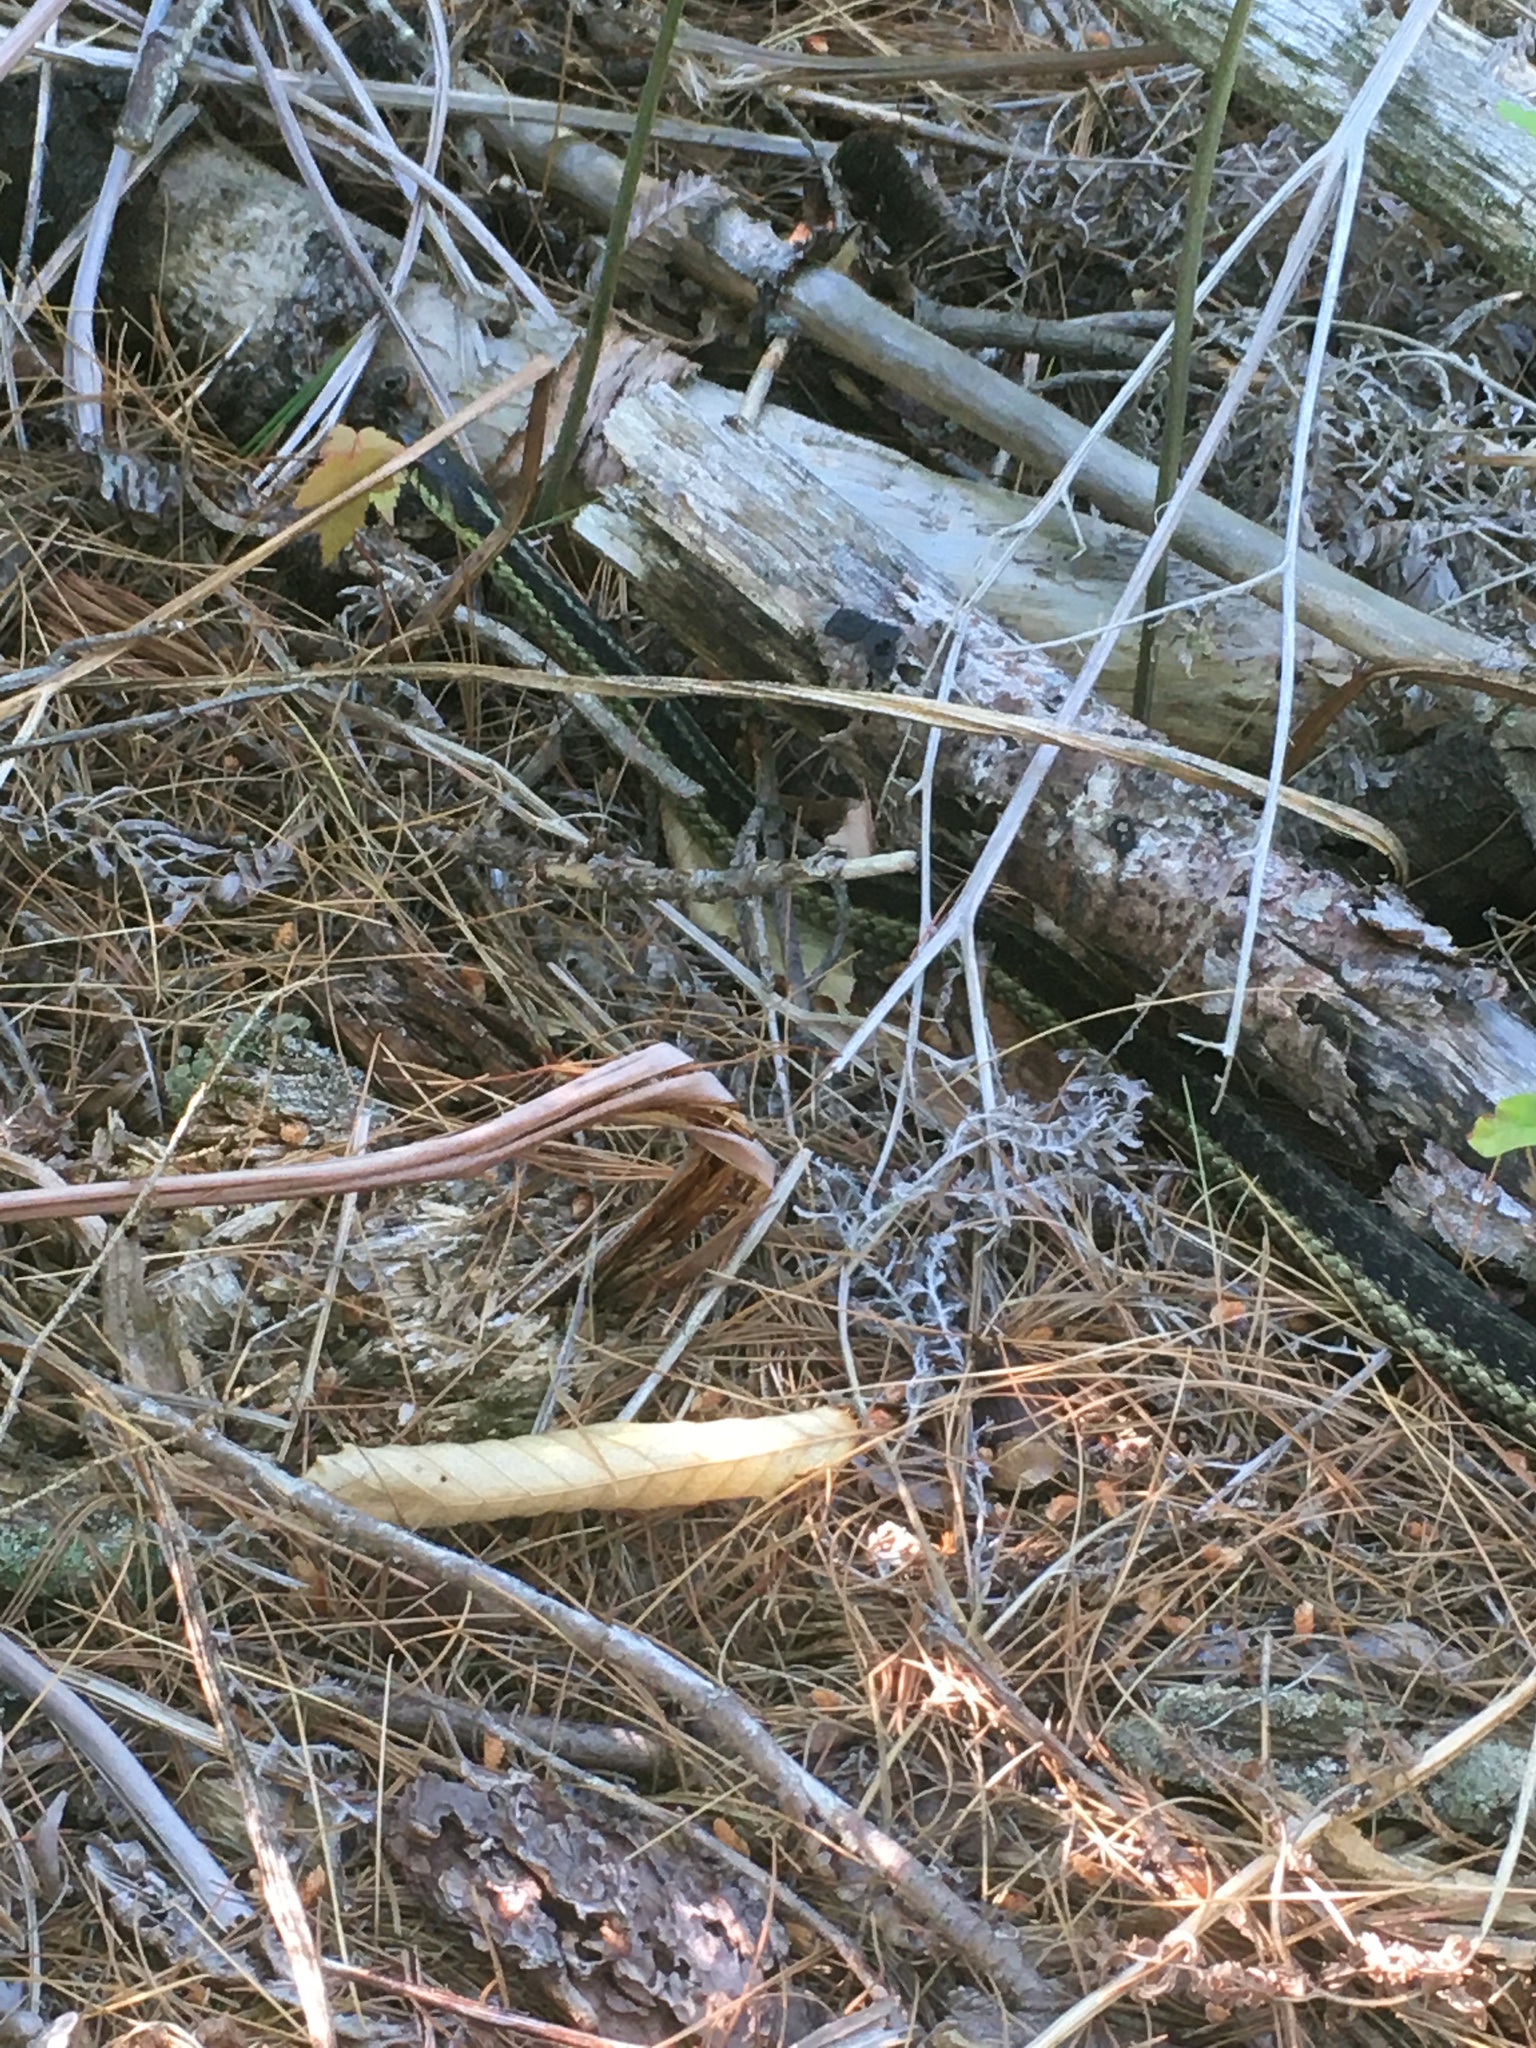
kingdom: Animalia
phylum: Chordata
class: Squamata
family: Colubridae
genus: Thamnophis
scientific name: Thamnophis sirtalis
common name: Common garter snake
